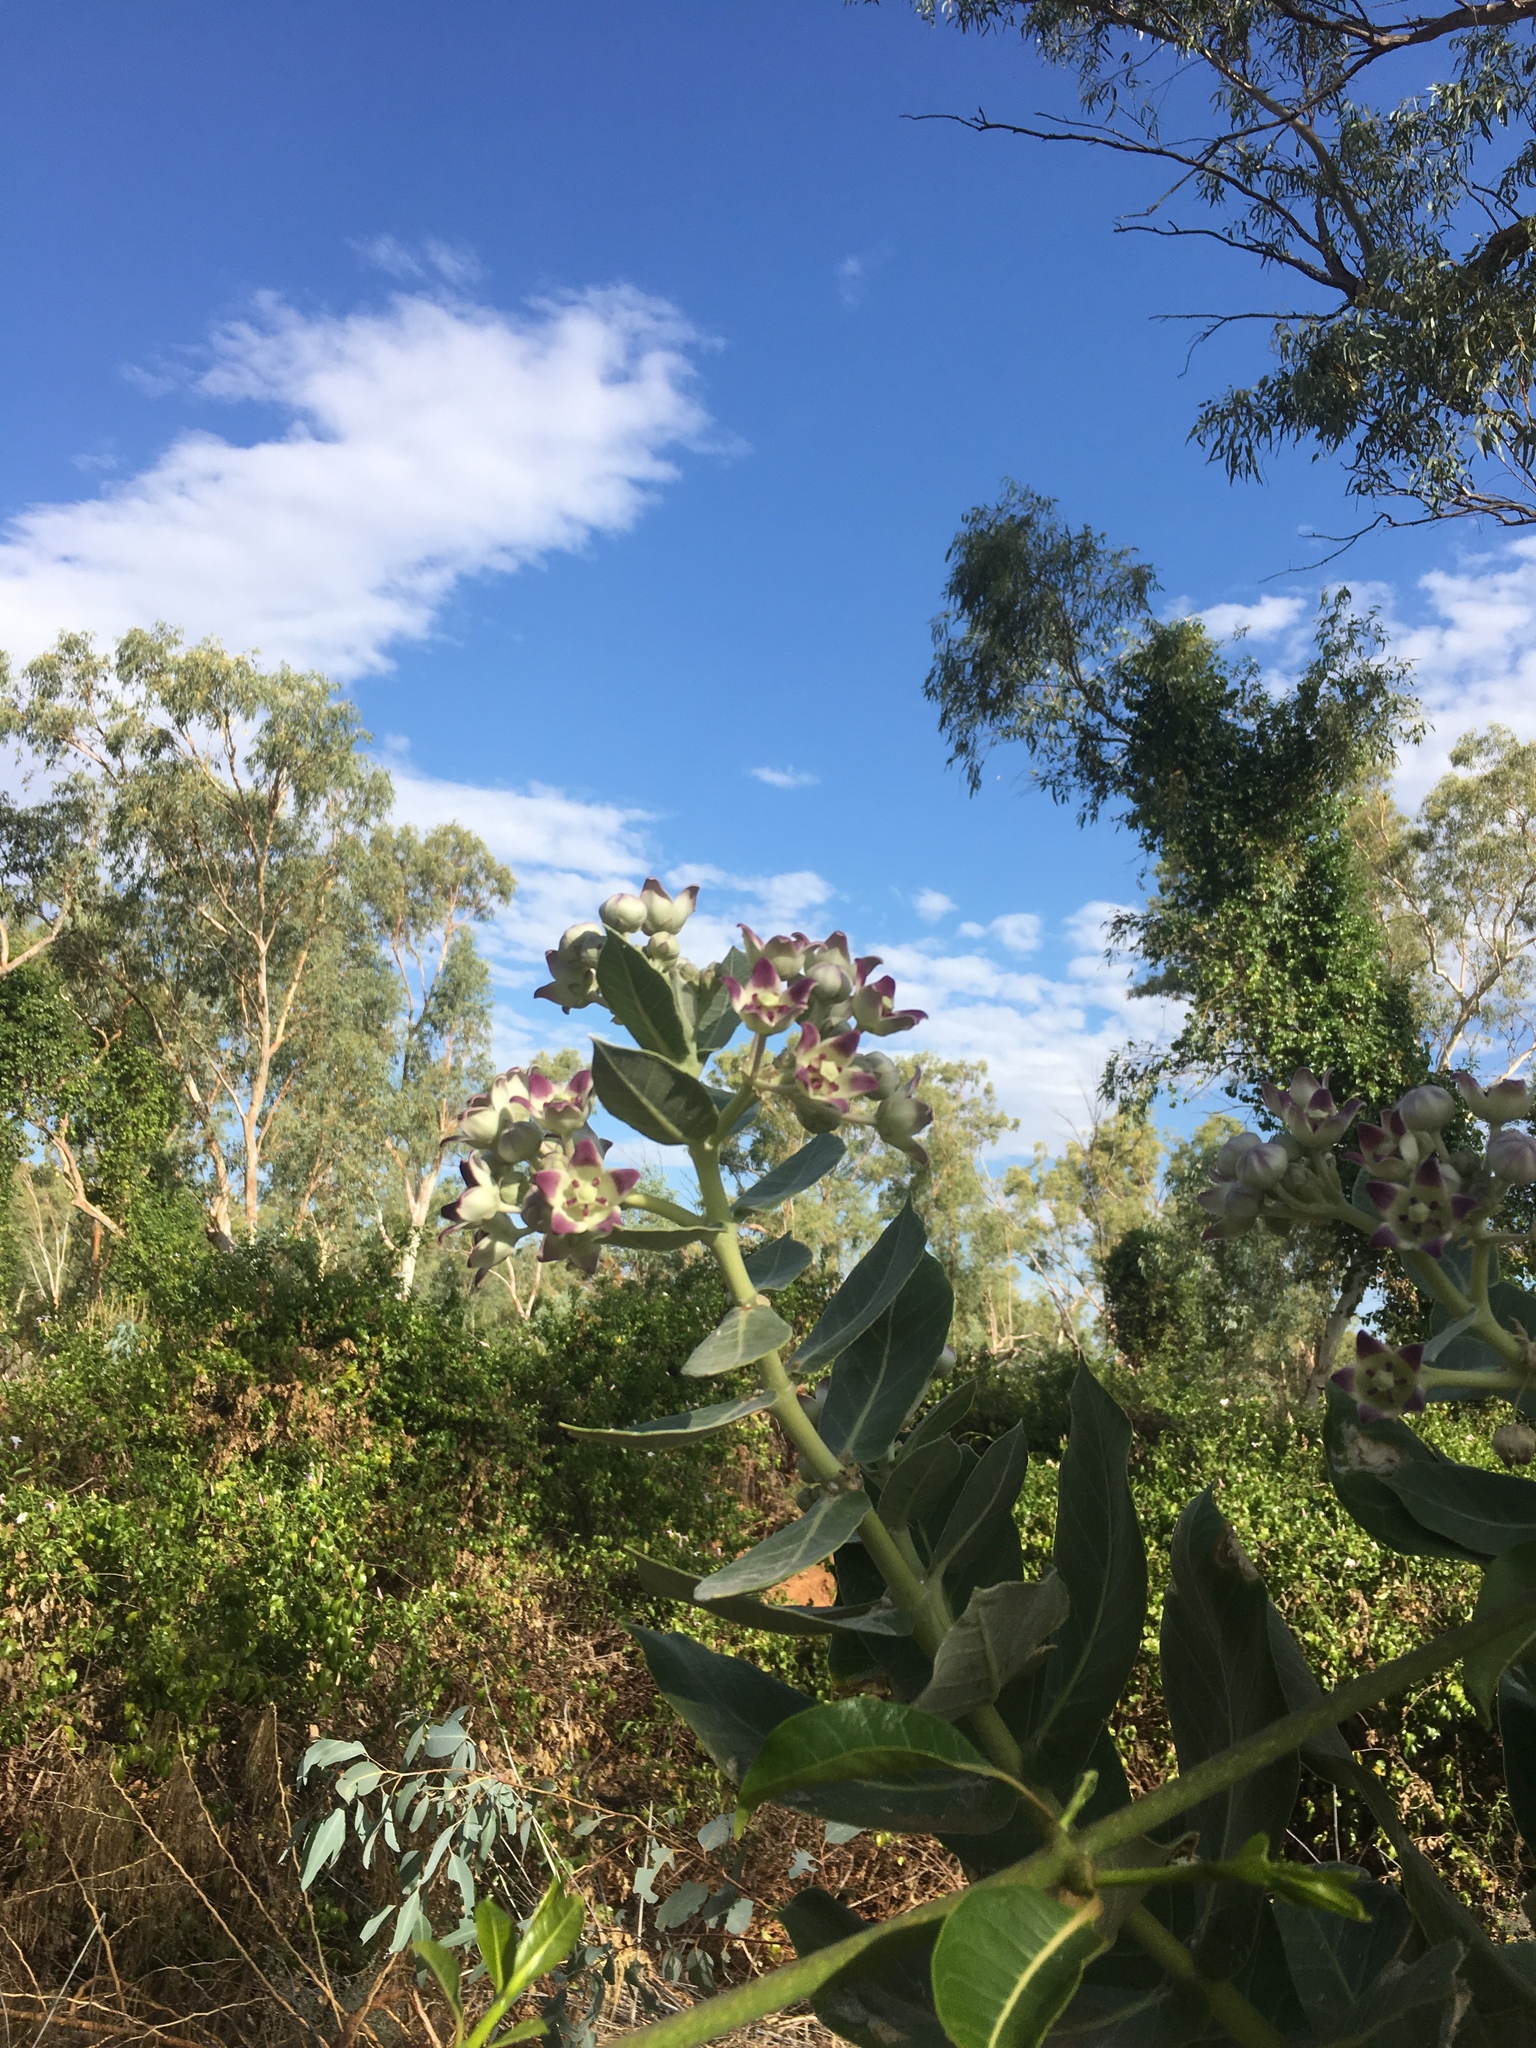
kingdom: Plantae
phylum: Tracheophyta
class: Magnoliopsida
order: Gentianales
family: Apocynaceae
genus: Calotropis
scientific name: Calotropis procera
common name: Roostertree
